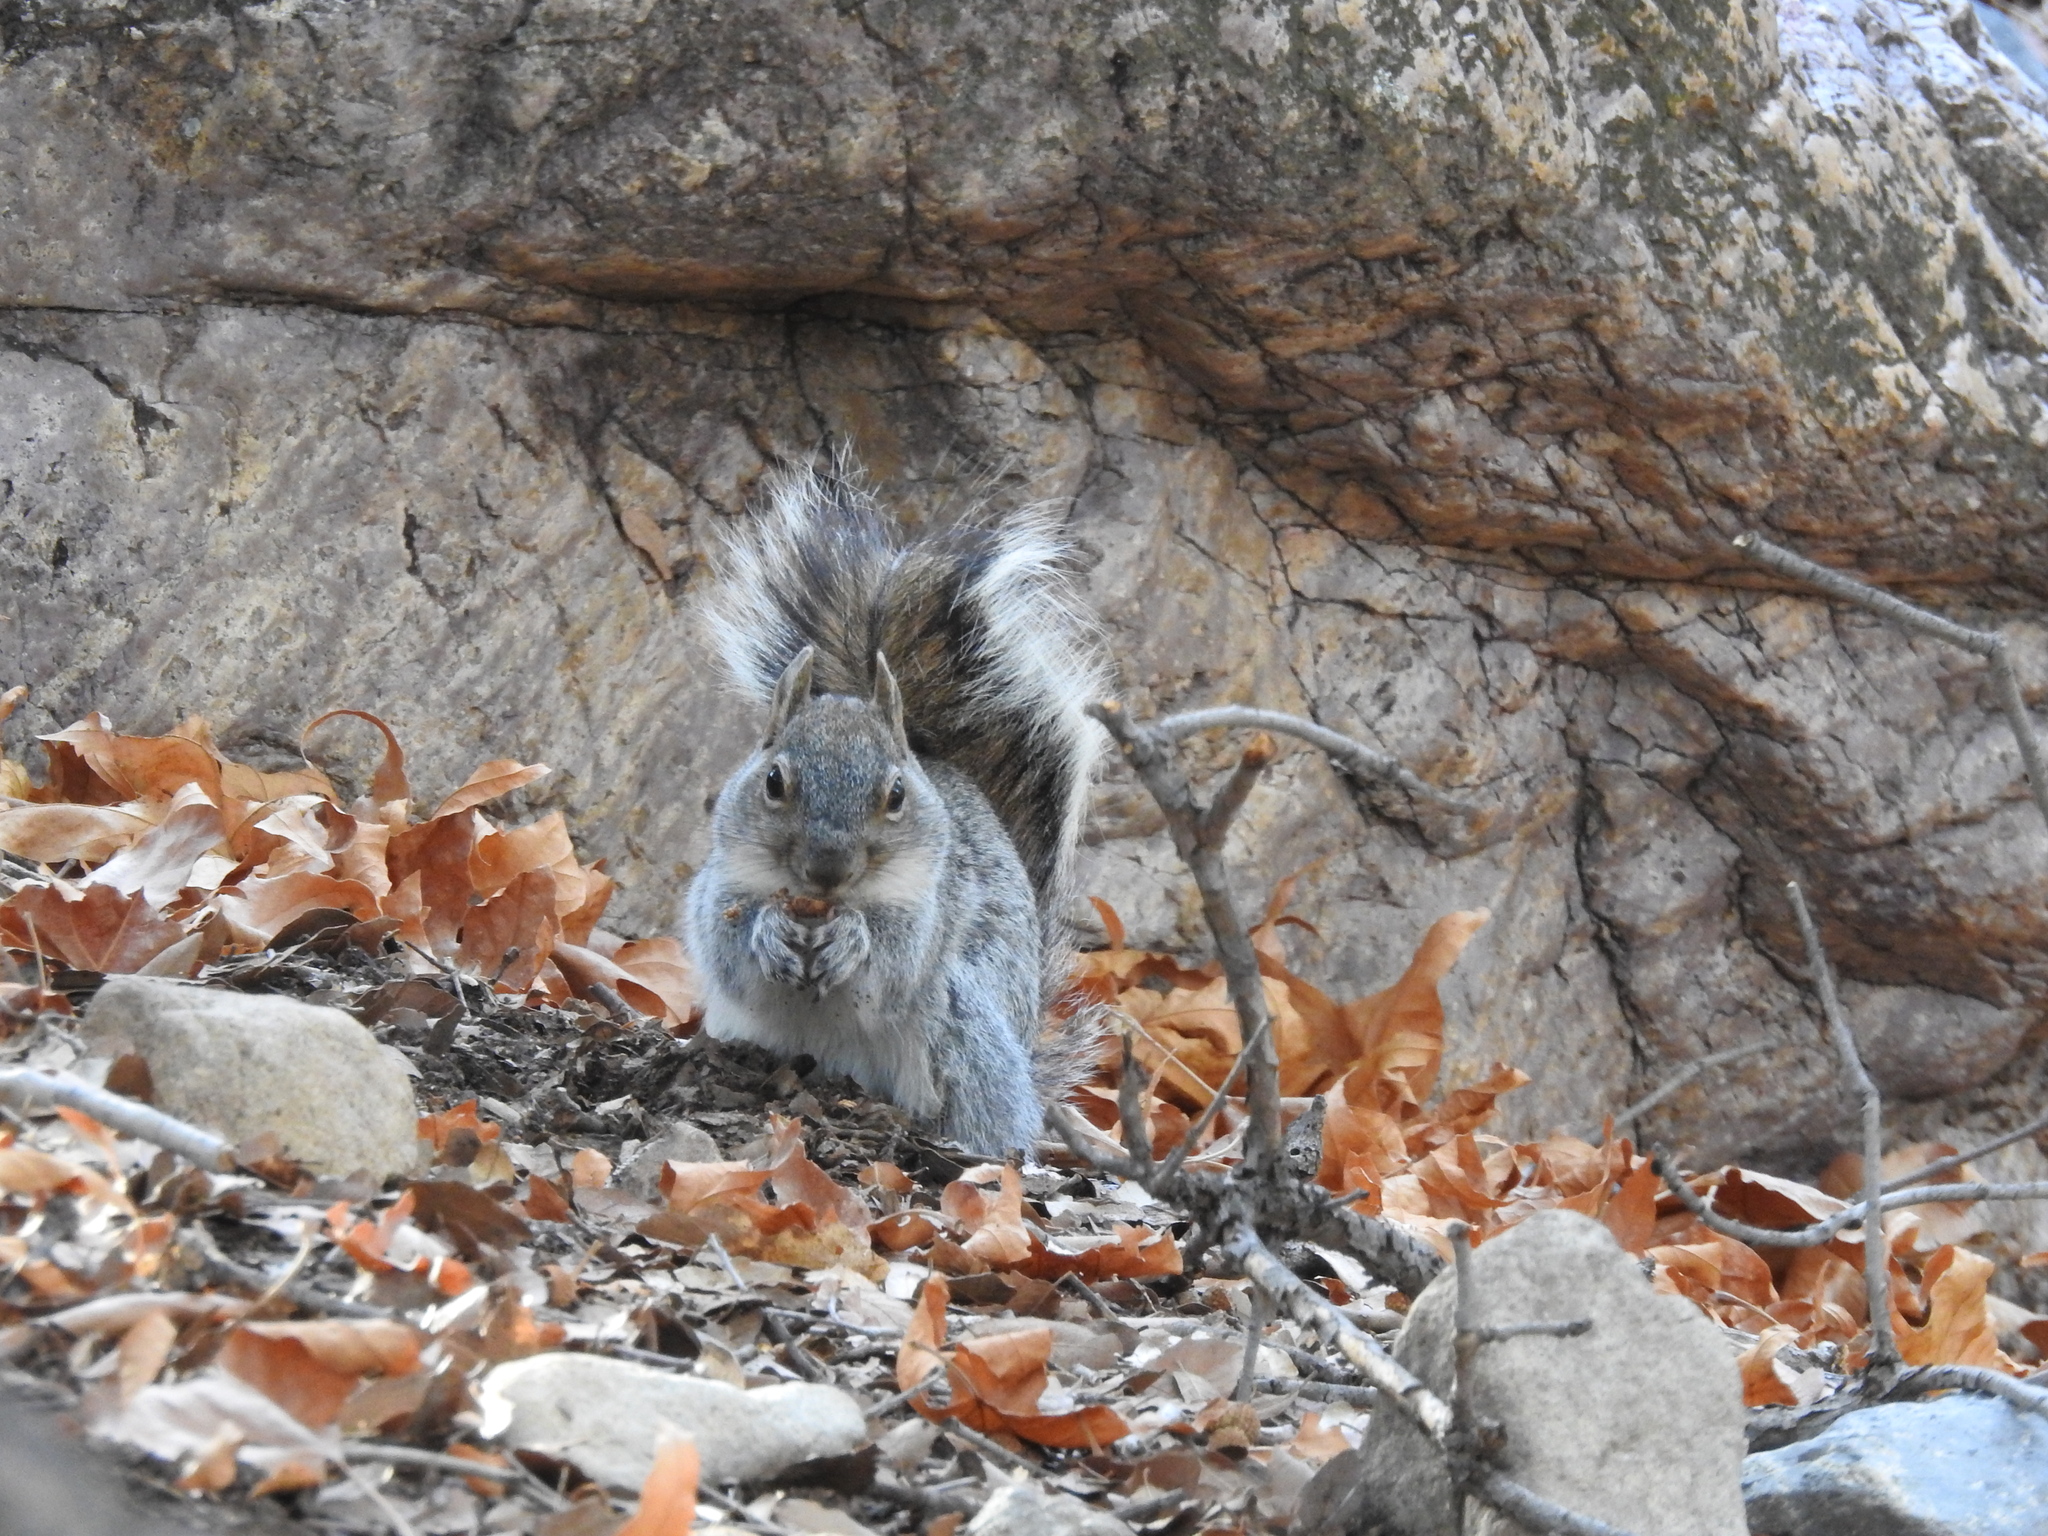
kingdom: Animalia
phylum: Chordata
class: Mammalia
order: Rodentia
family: Sciuridae
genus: Sciurus
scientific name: Sciurus arizonensis
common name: Arizona gray squirrel
